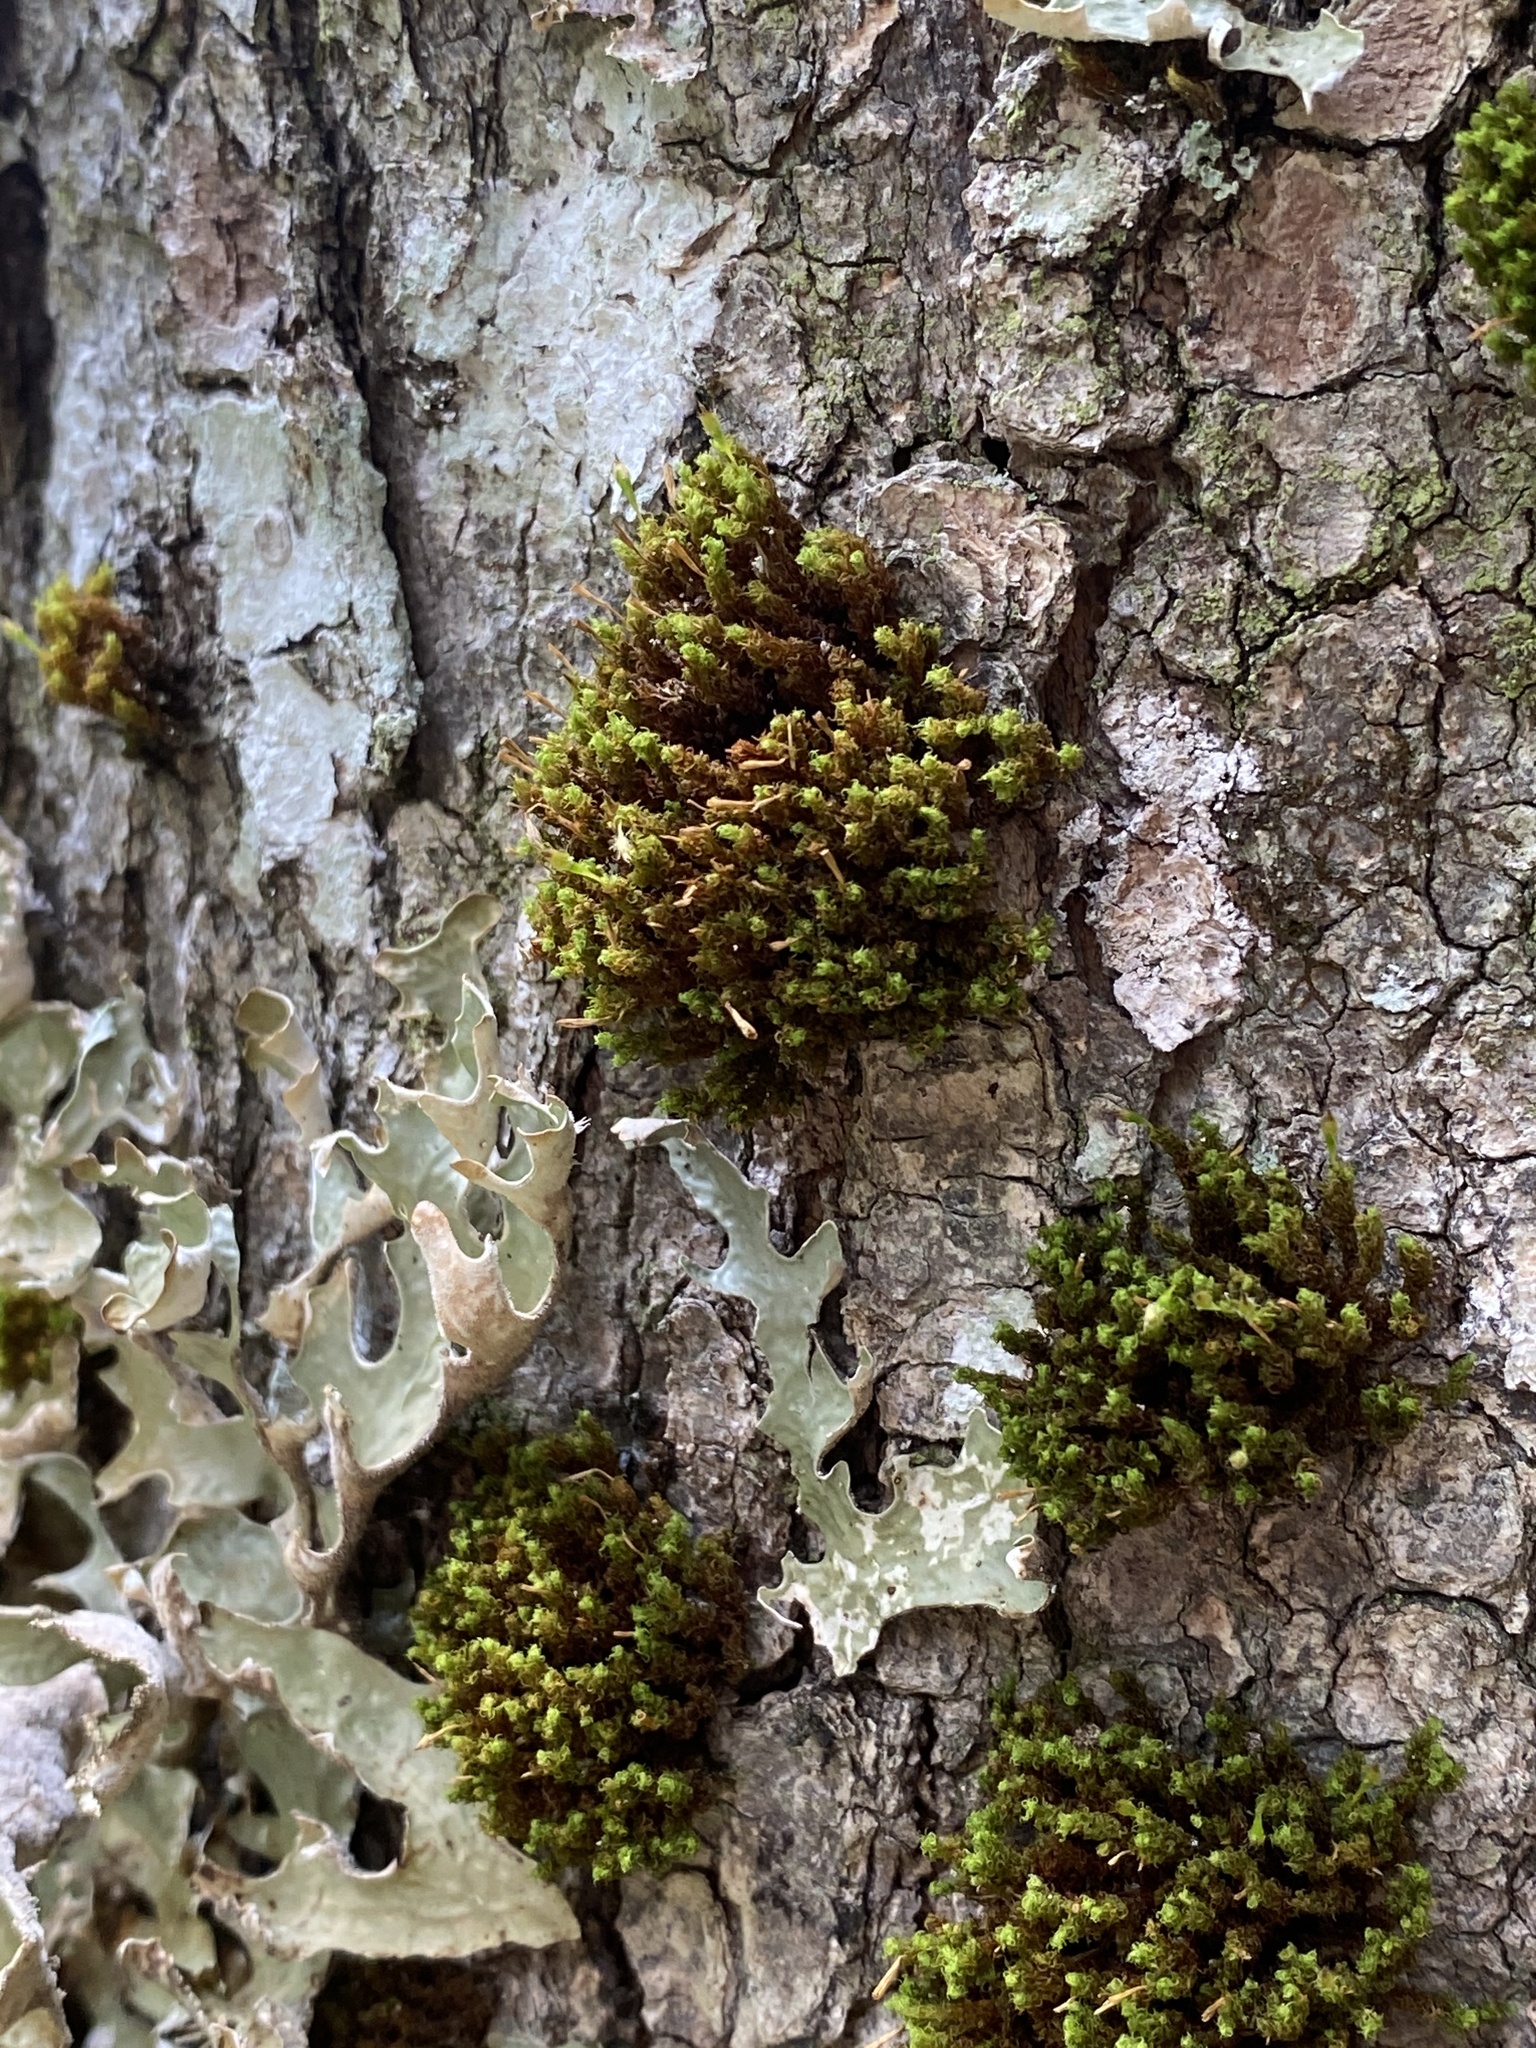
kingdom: Plantae
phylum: Bryophyta
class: Bryopsida
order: Orthotrichales
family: Orthotrichaceae
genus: Ulota
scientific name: Ulota crispa
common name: Crisped pincushion moss
